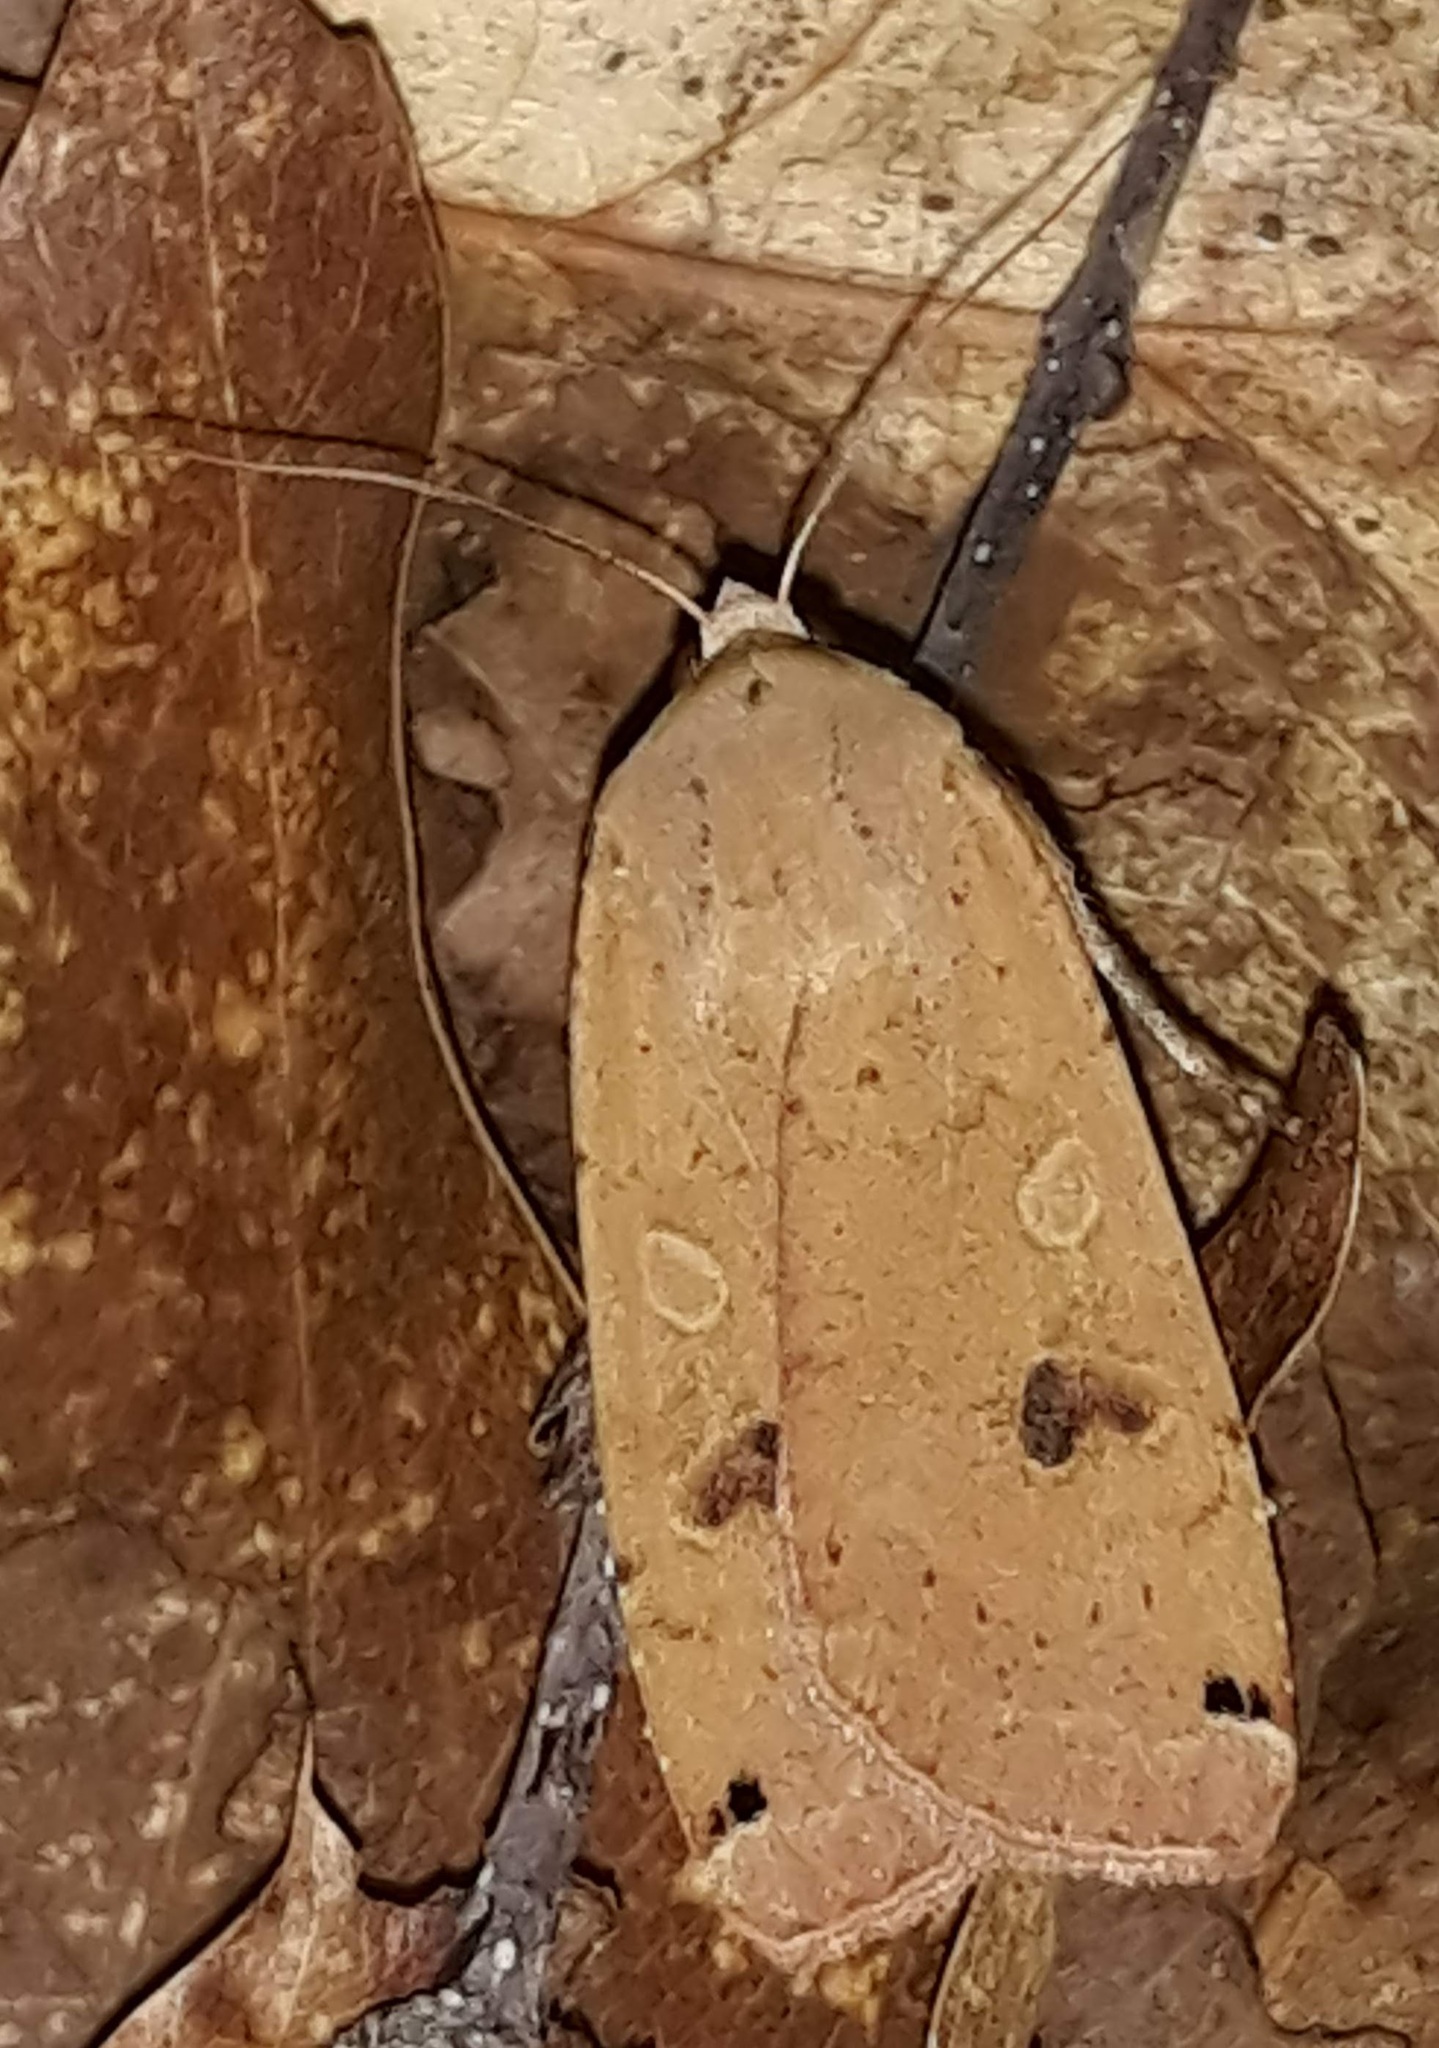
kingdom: Animalia
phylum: Arthropoda
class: Insecta
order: Lepidoptera
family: Noctuidae
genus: Noctua
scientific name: Noctua pronuba
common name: Large yellow underwing
